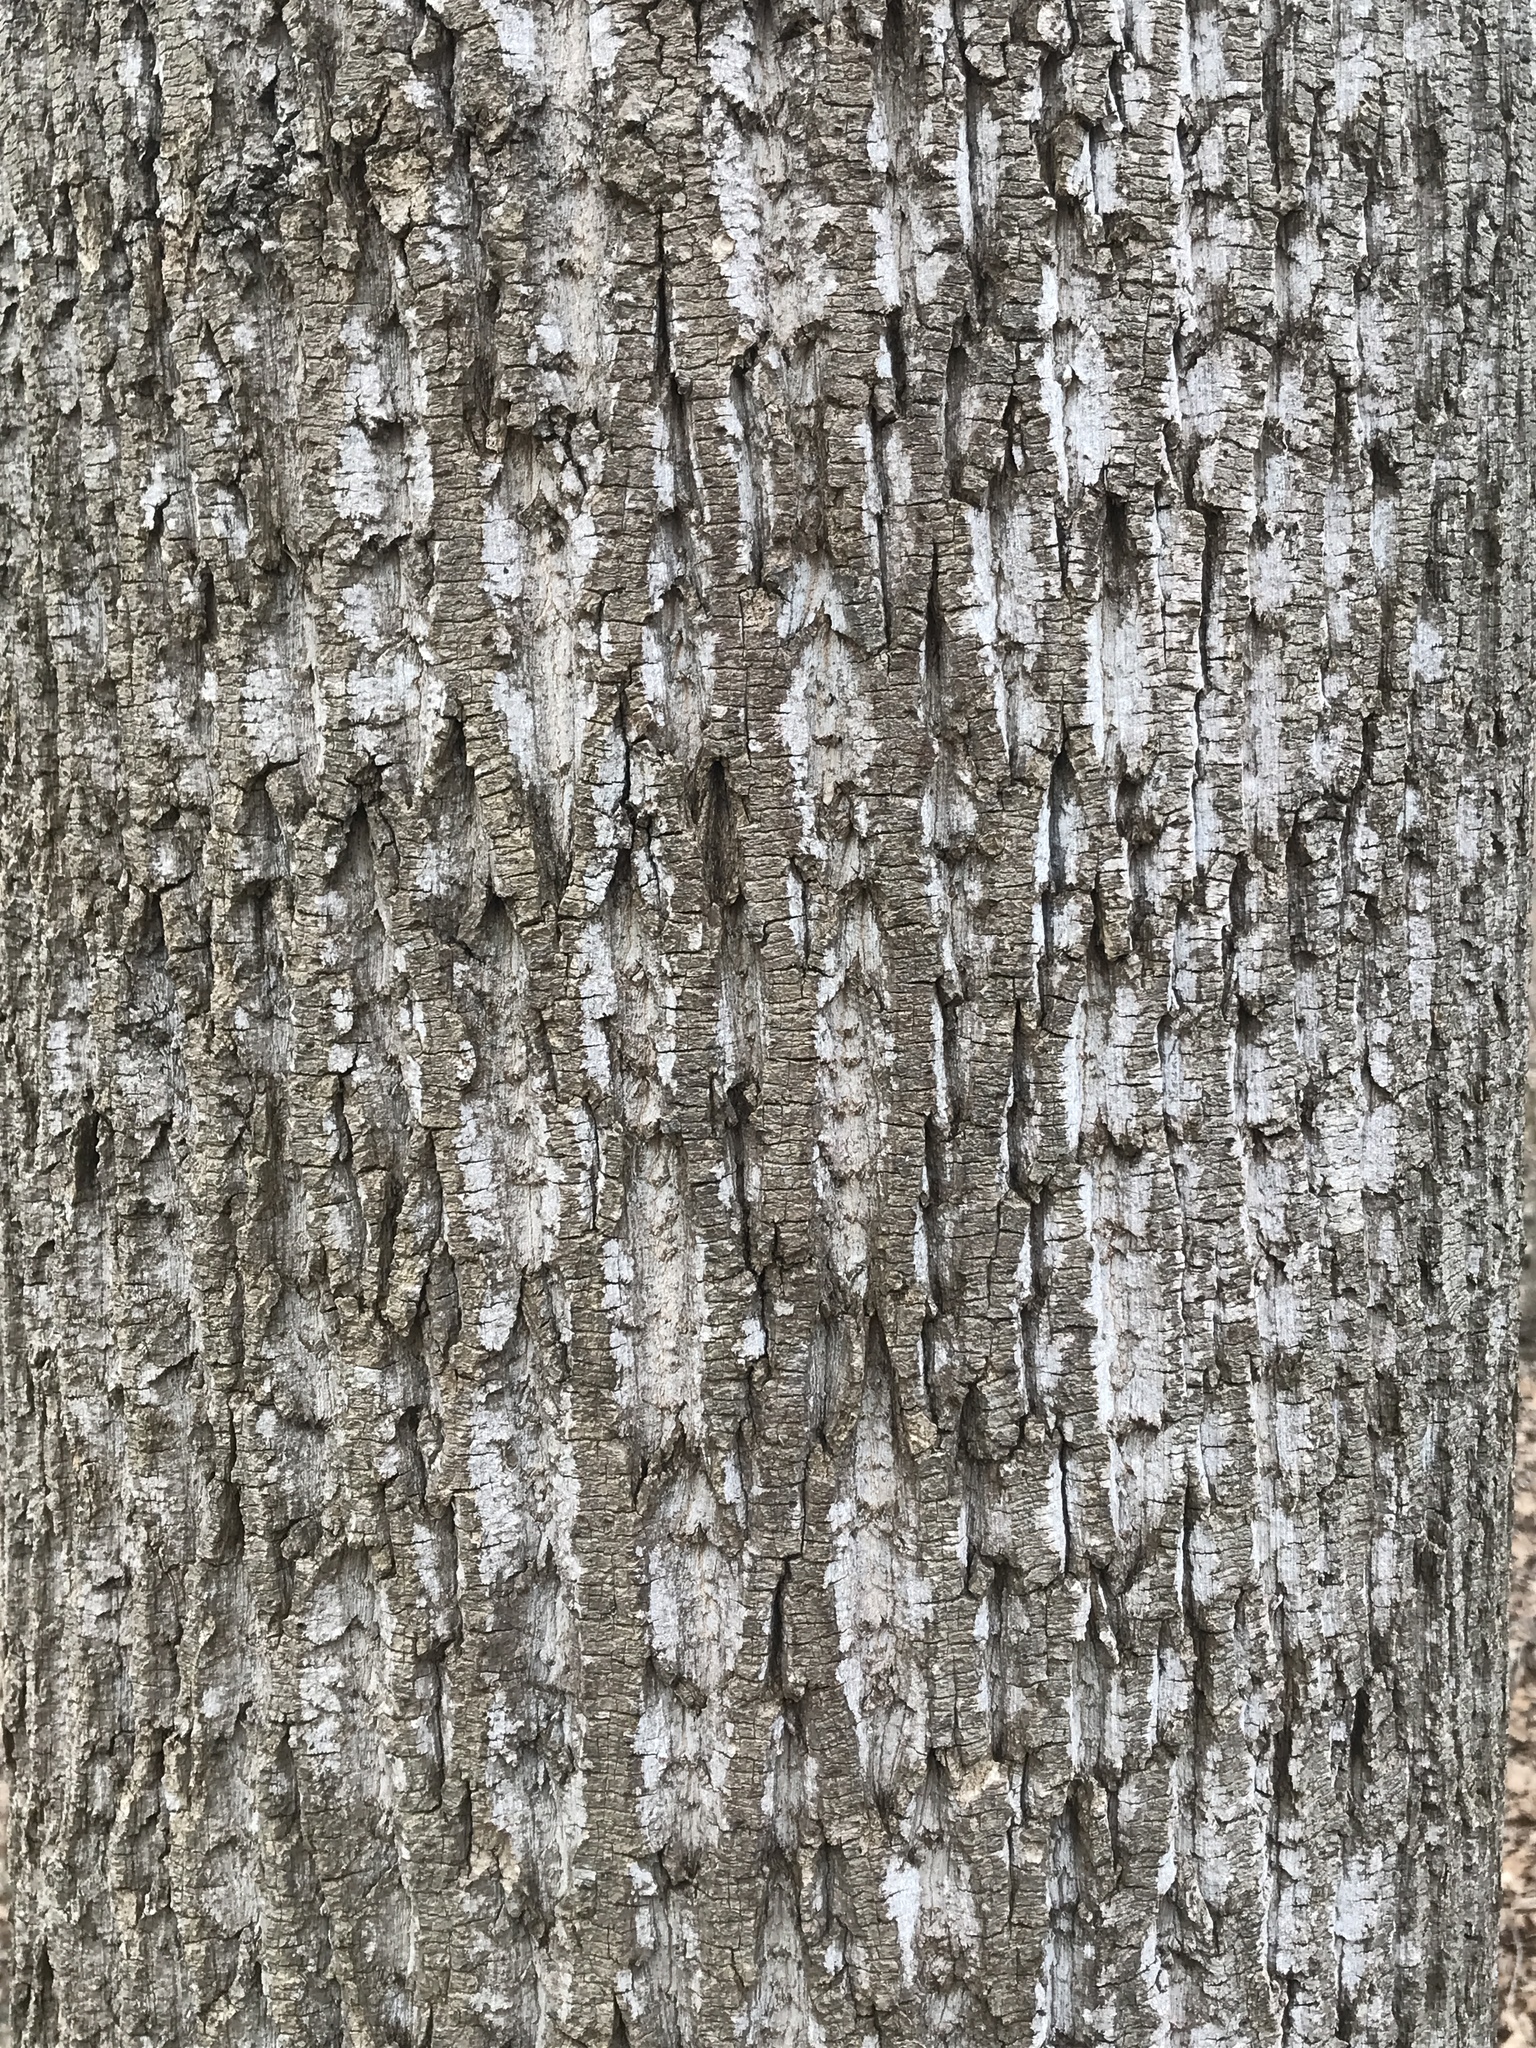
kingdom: Plantae
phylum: Tracheophyta
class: Magnoliopsida
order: Magnoliales
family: Magnoliaceae
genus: Liriodendron
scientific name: Liriodendron tulipifera
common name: Tulip tree
